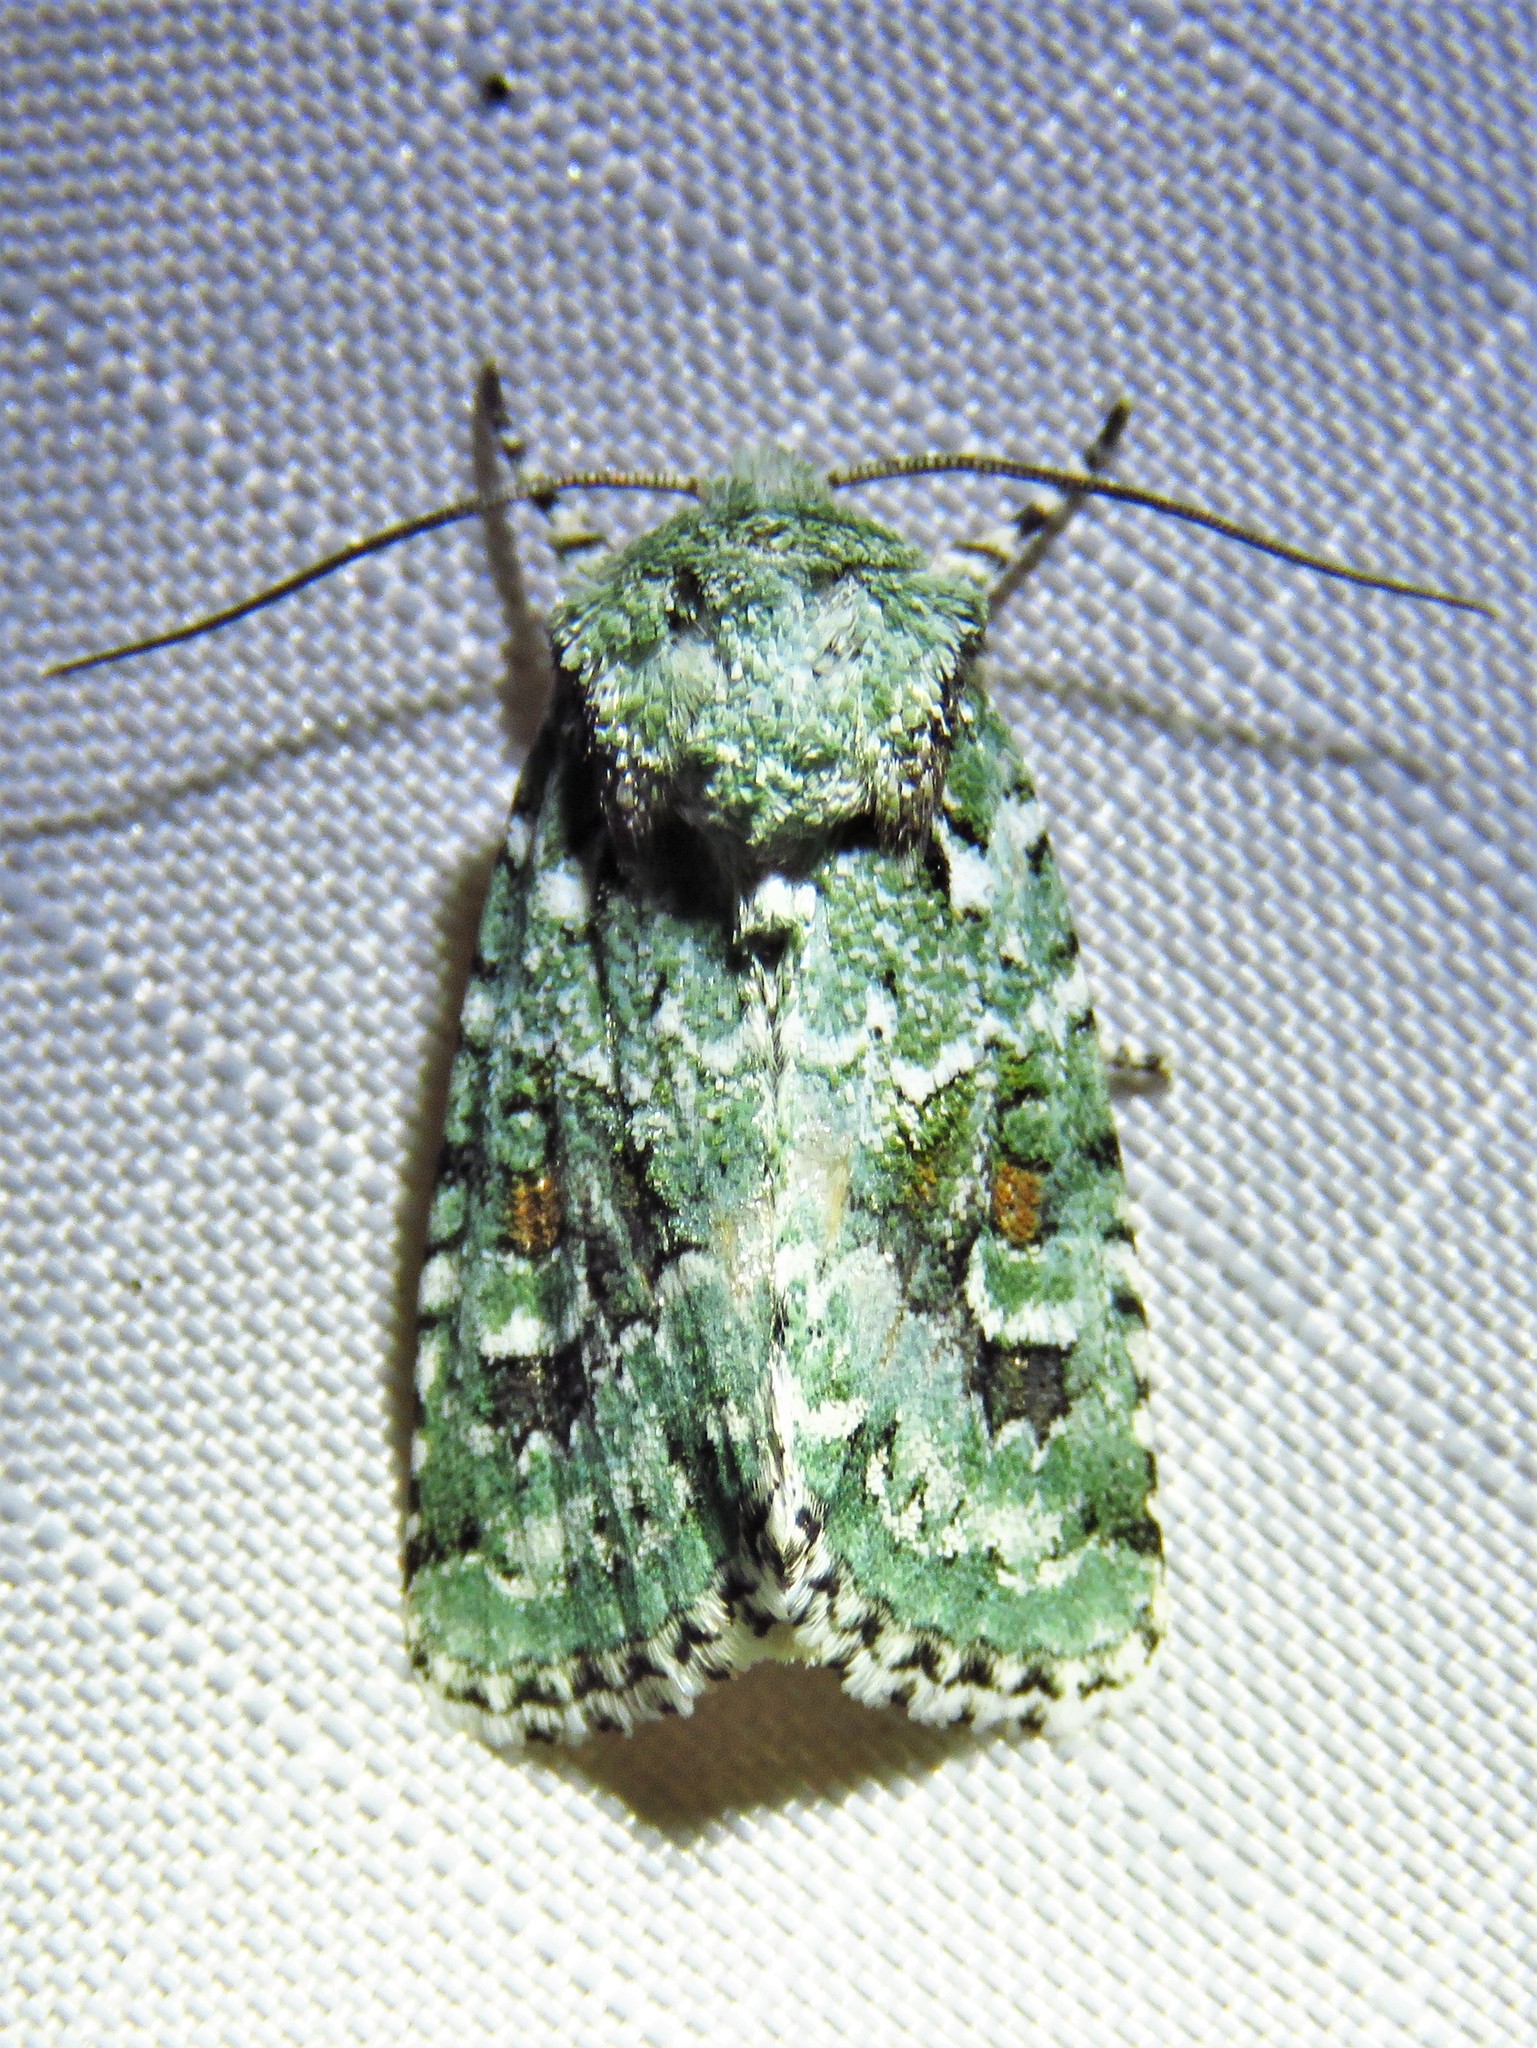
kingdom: Animalia
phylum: Arthropoda
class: Insecta
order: Lepidoptera
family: Noctuidae
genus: Lacinipolia
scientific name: Lacinipolia laudabilis
